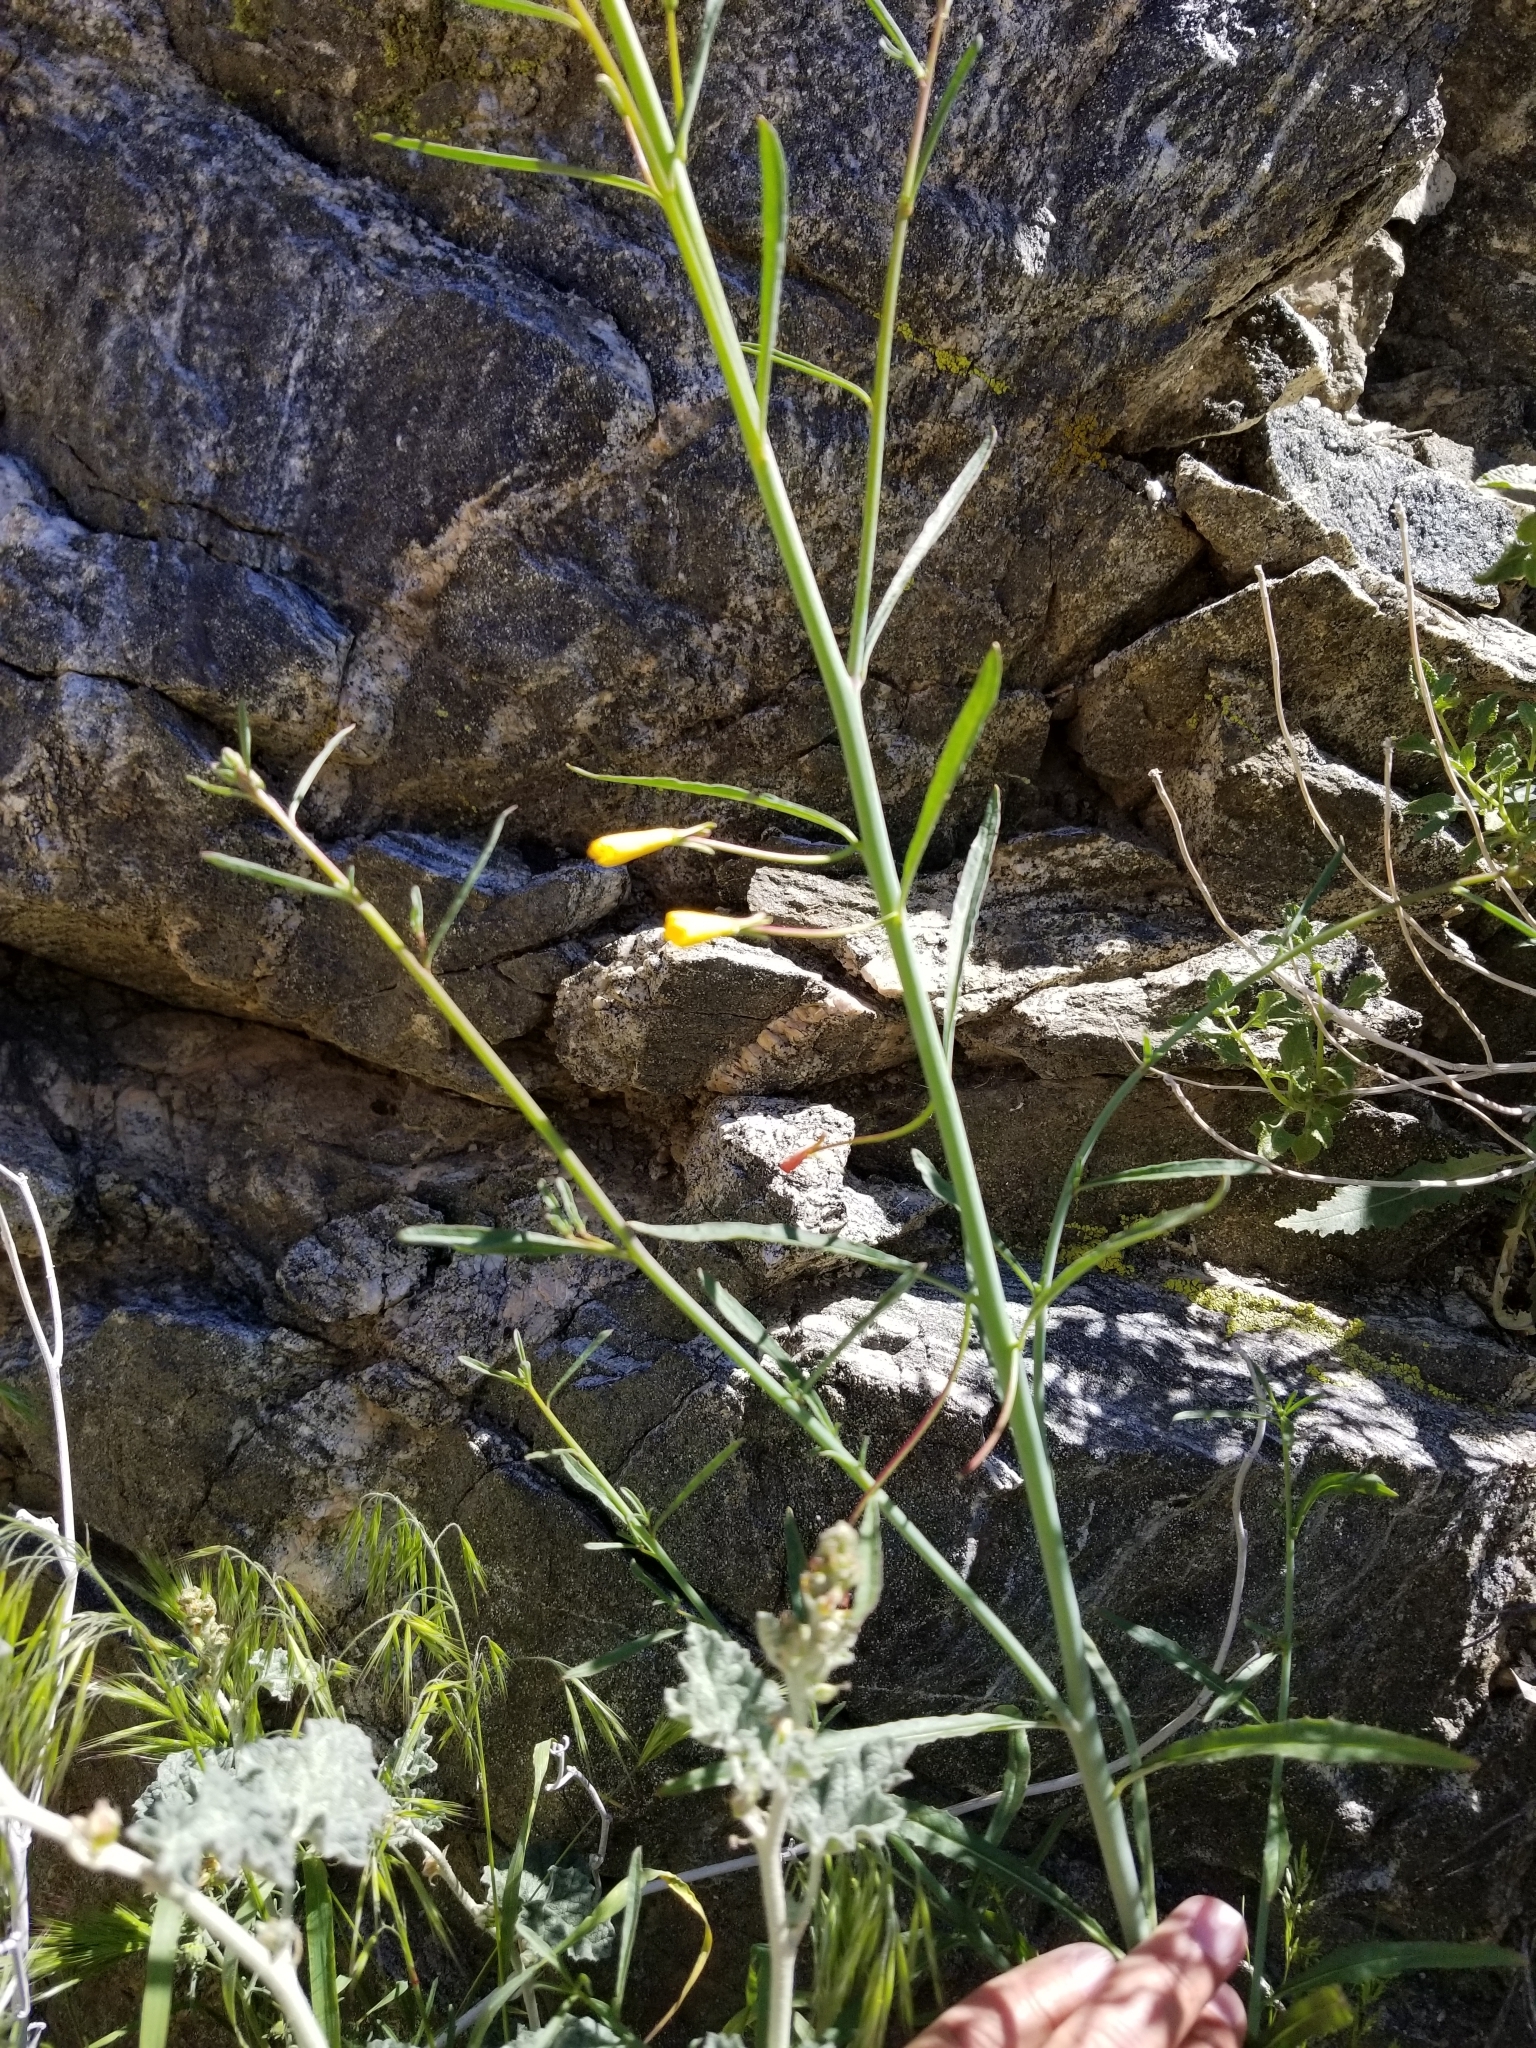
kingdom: Plantae
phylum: Tracheophyta
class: Magnoliopsida
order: Myrtales
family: Onagraceae
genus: Eulobus
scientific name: Eulobus californicus
